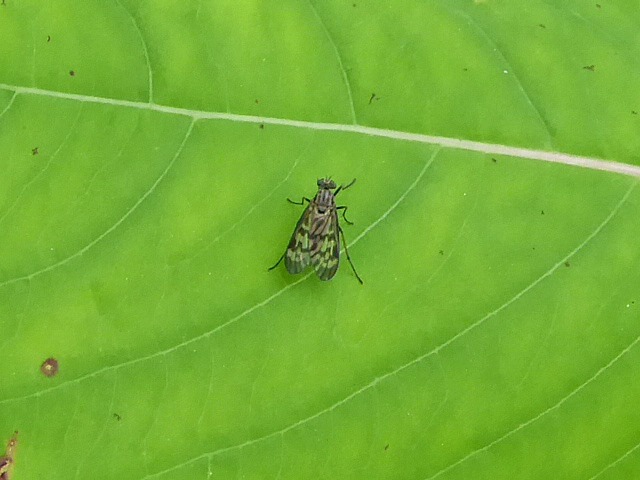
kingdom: Animalia
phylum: Arthropoda
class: Insecta
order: Diptera
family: Rhagionidae
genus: Rhagio
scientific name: Rhagio punctipennis
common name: Lesser variegated snipe fly
